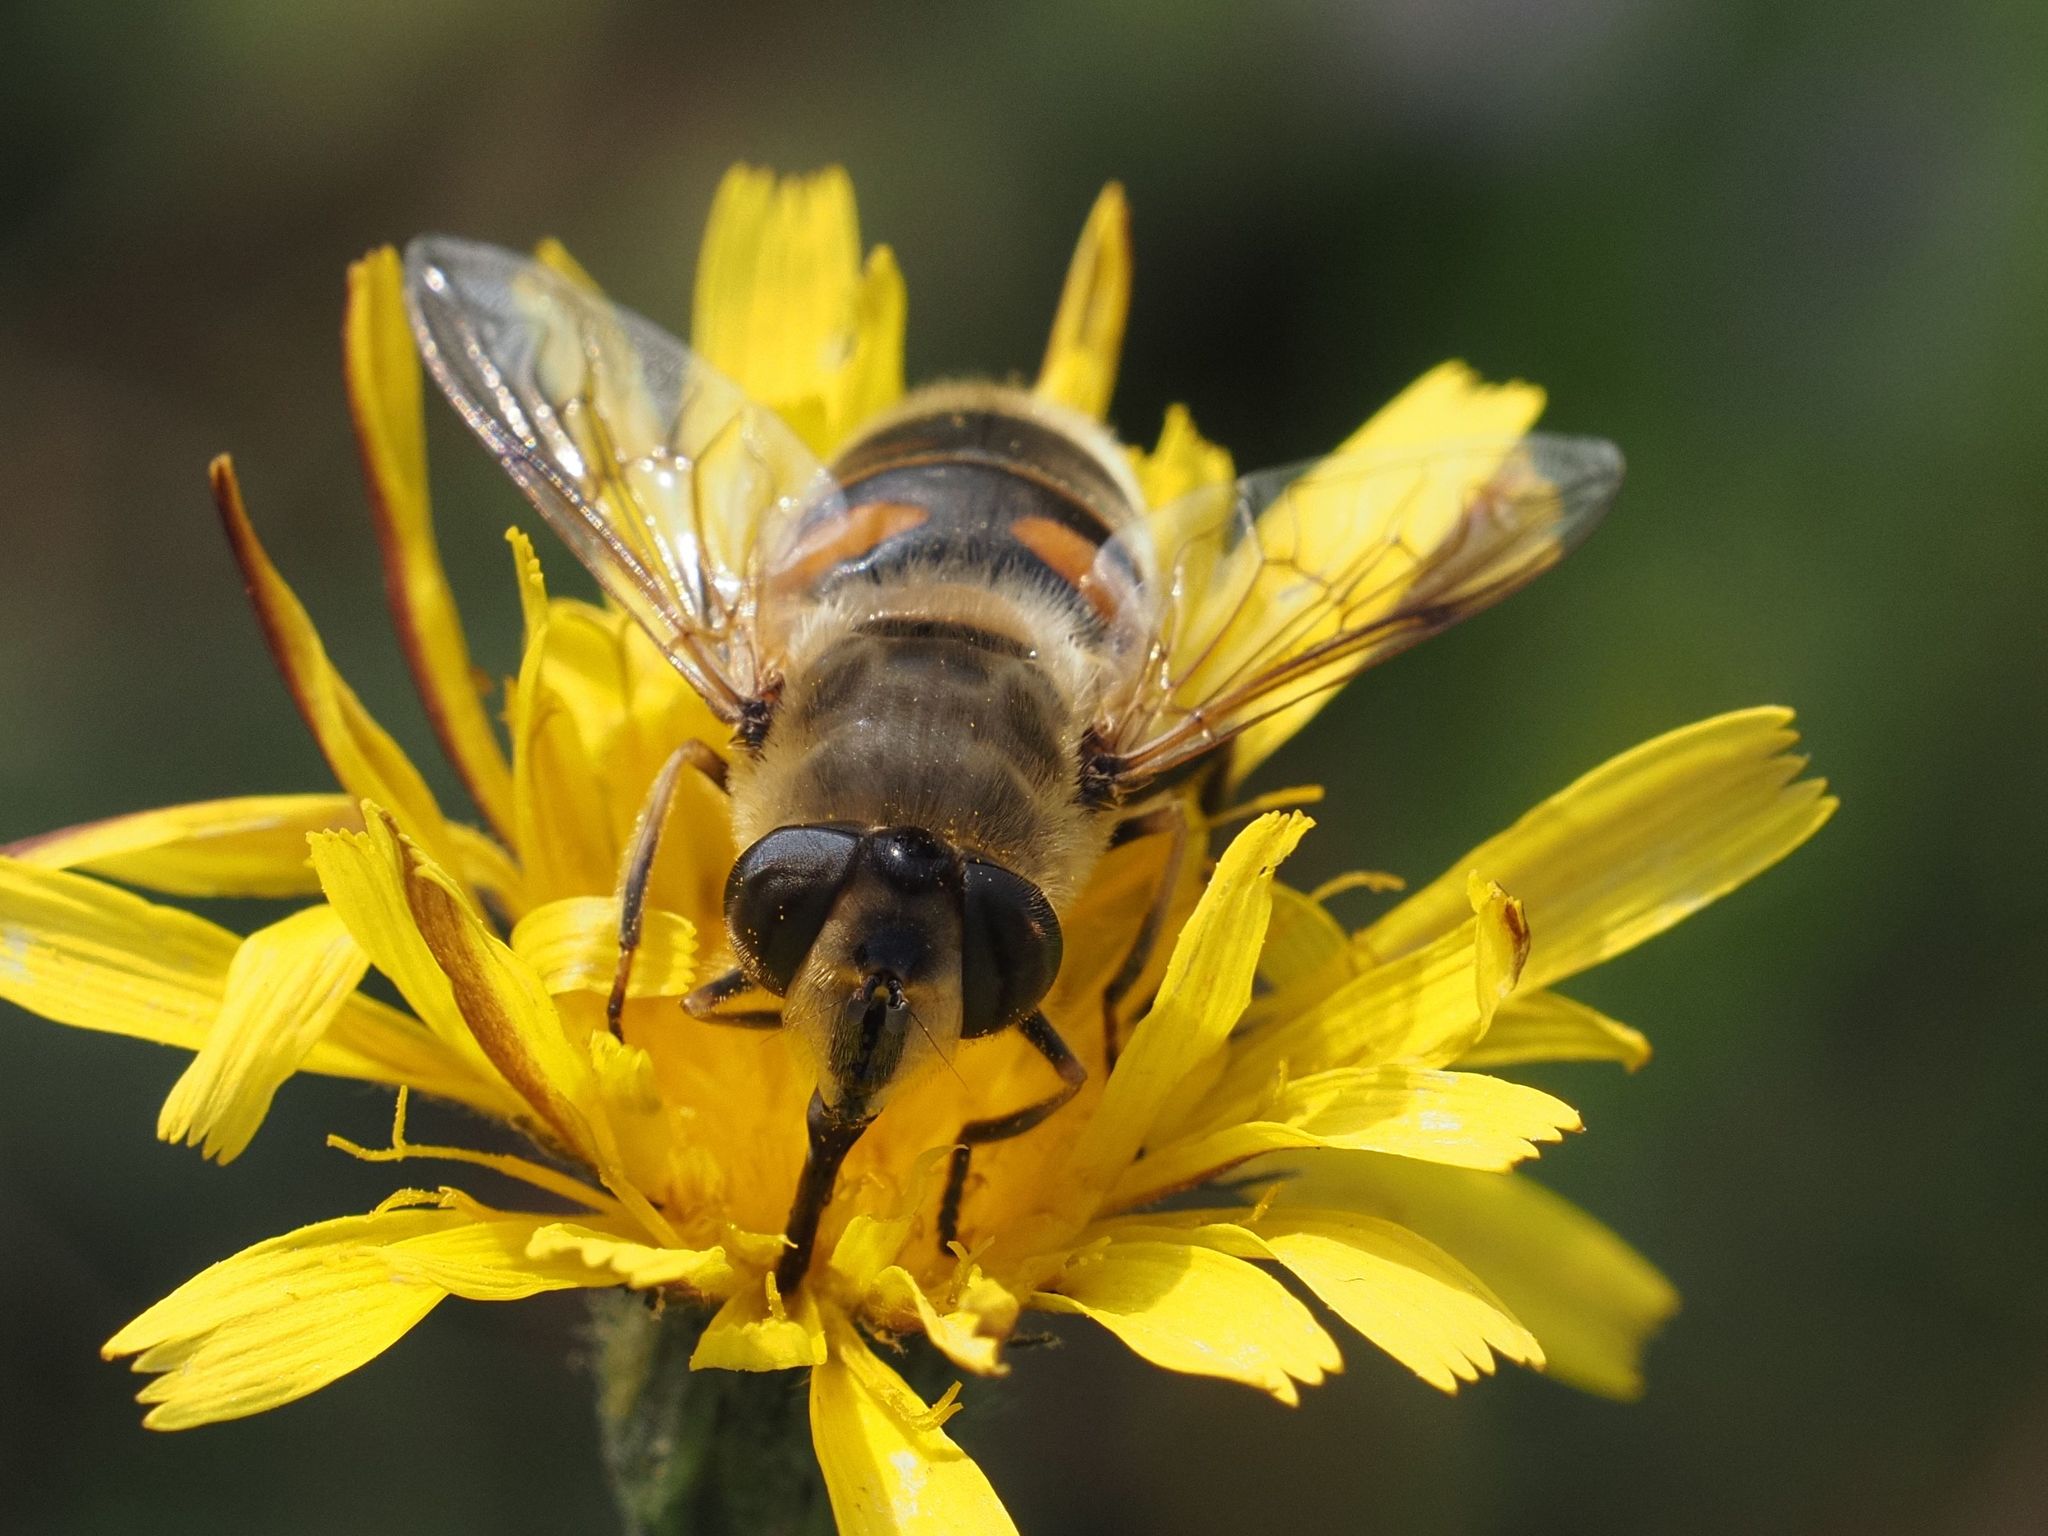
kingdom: Animalia
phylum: Arthropoda
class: Insecta
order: Diptera
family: Syrphidae
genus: Eristalis
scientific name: Eristalis tenax
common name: Drone fly
